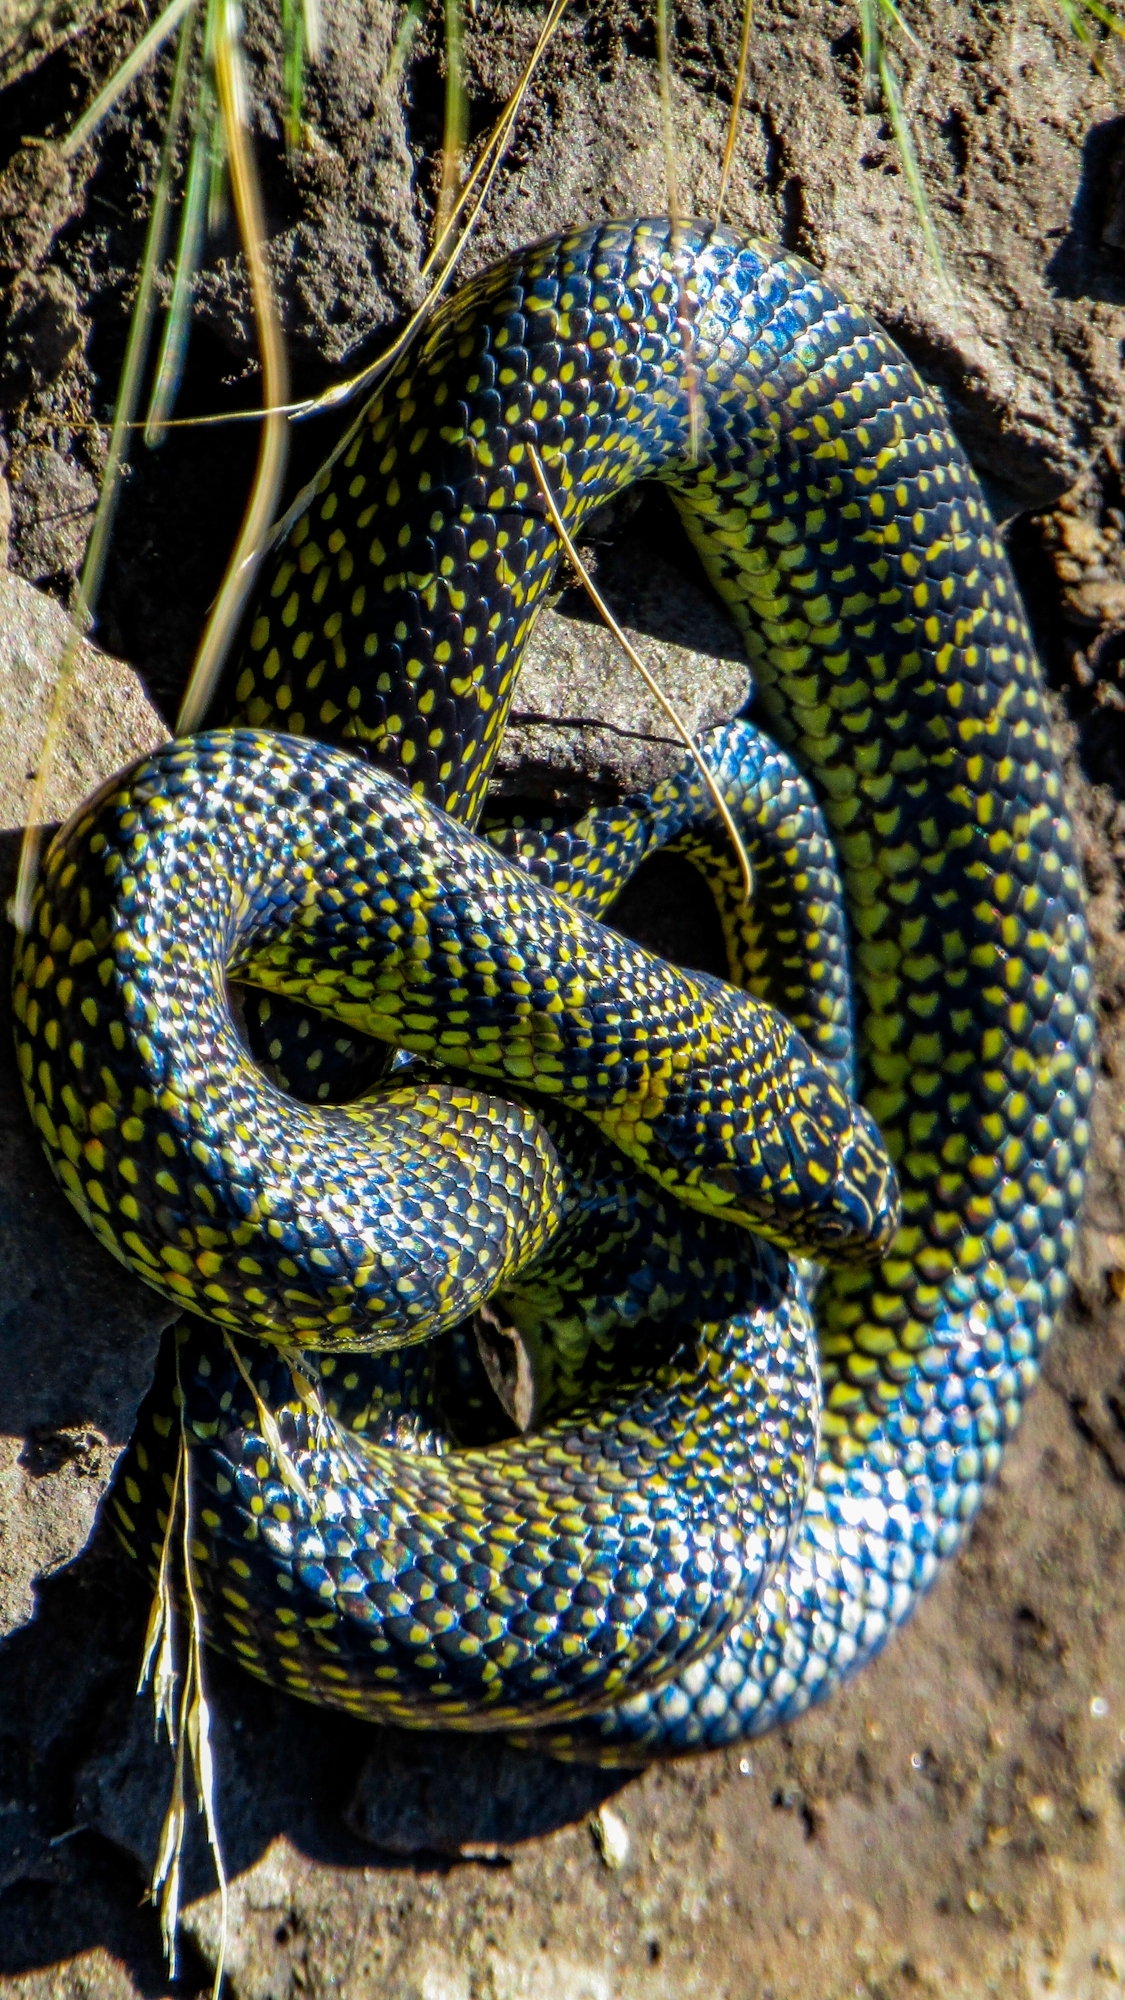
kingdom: Animalia
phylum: Chordata
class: Squamata
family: Colubridae
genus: Erythrolamprus
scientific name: Erythrolamprus poecilogyrus
